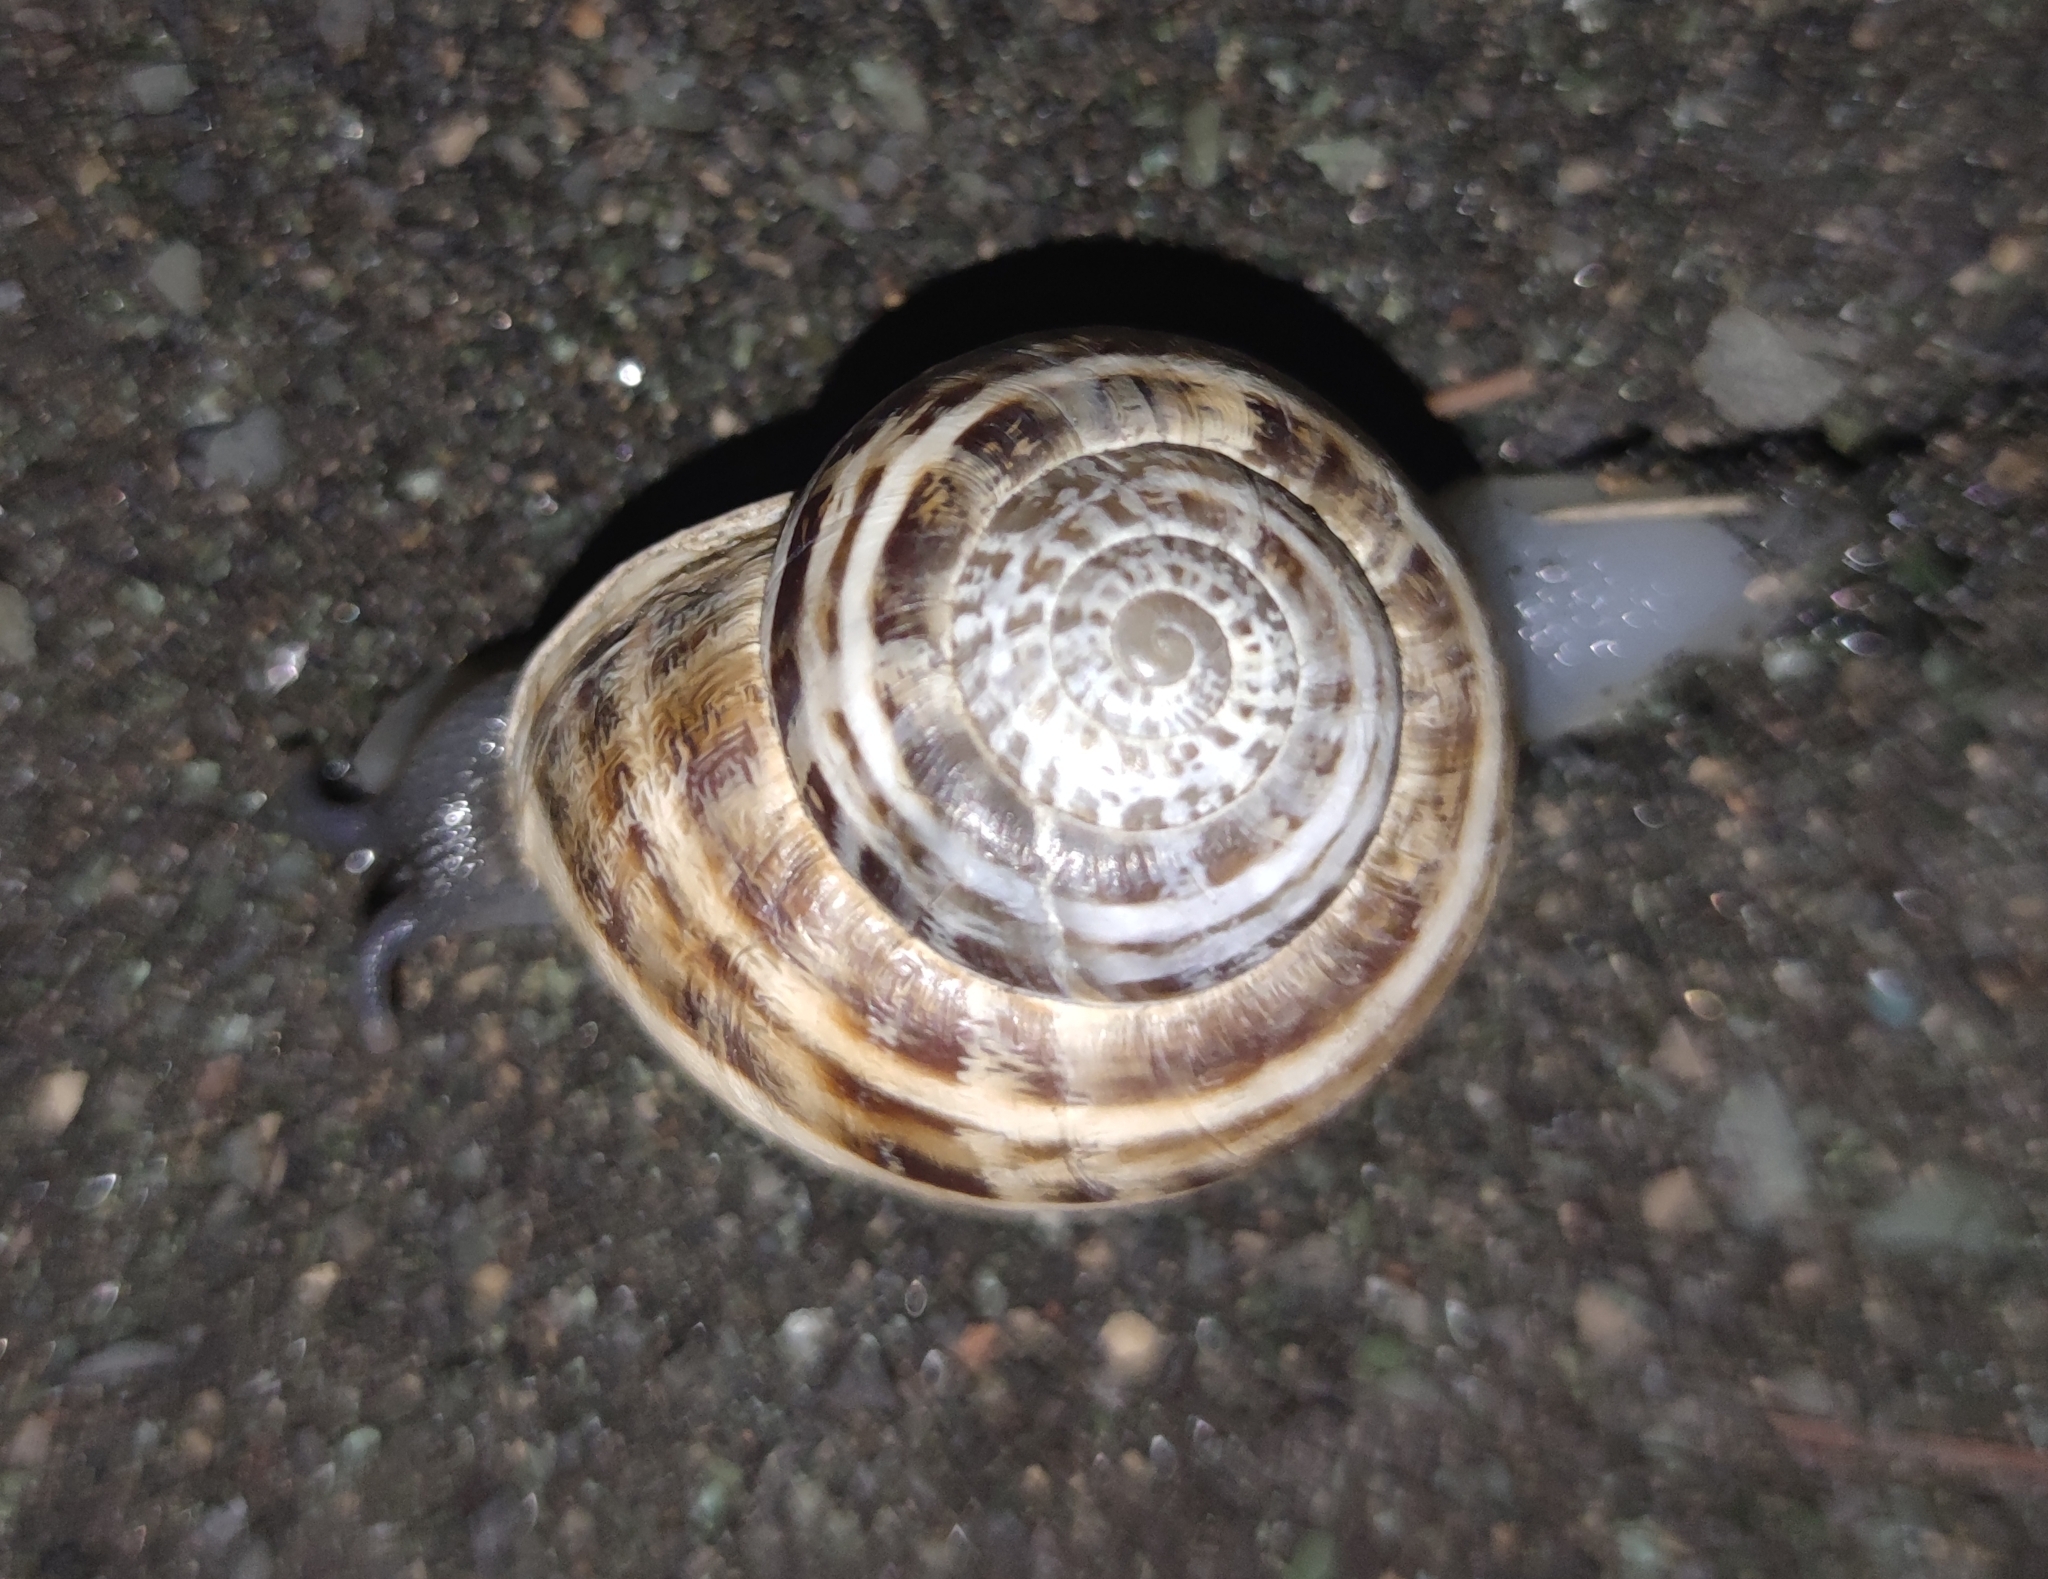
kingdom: Animalia
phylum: Mollusca
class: Gastropoda
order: Stylommatophora
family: Helicidae
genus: Eobania
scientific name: Eobania vermiculata
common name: Chocolateband snail
